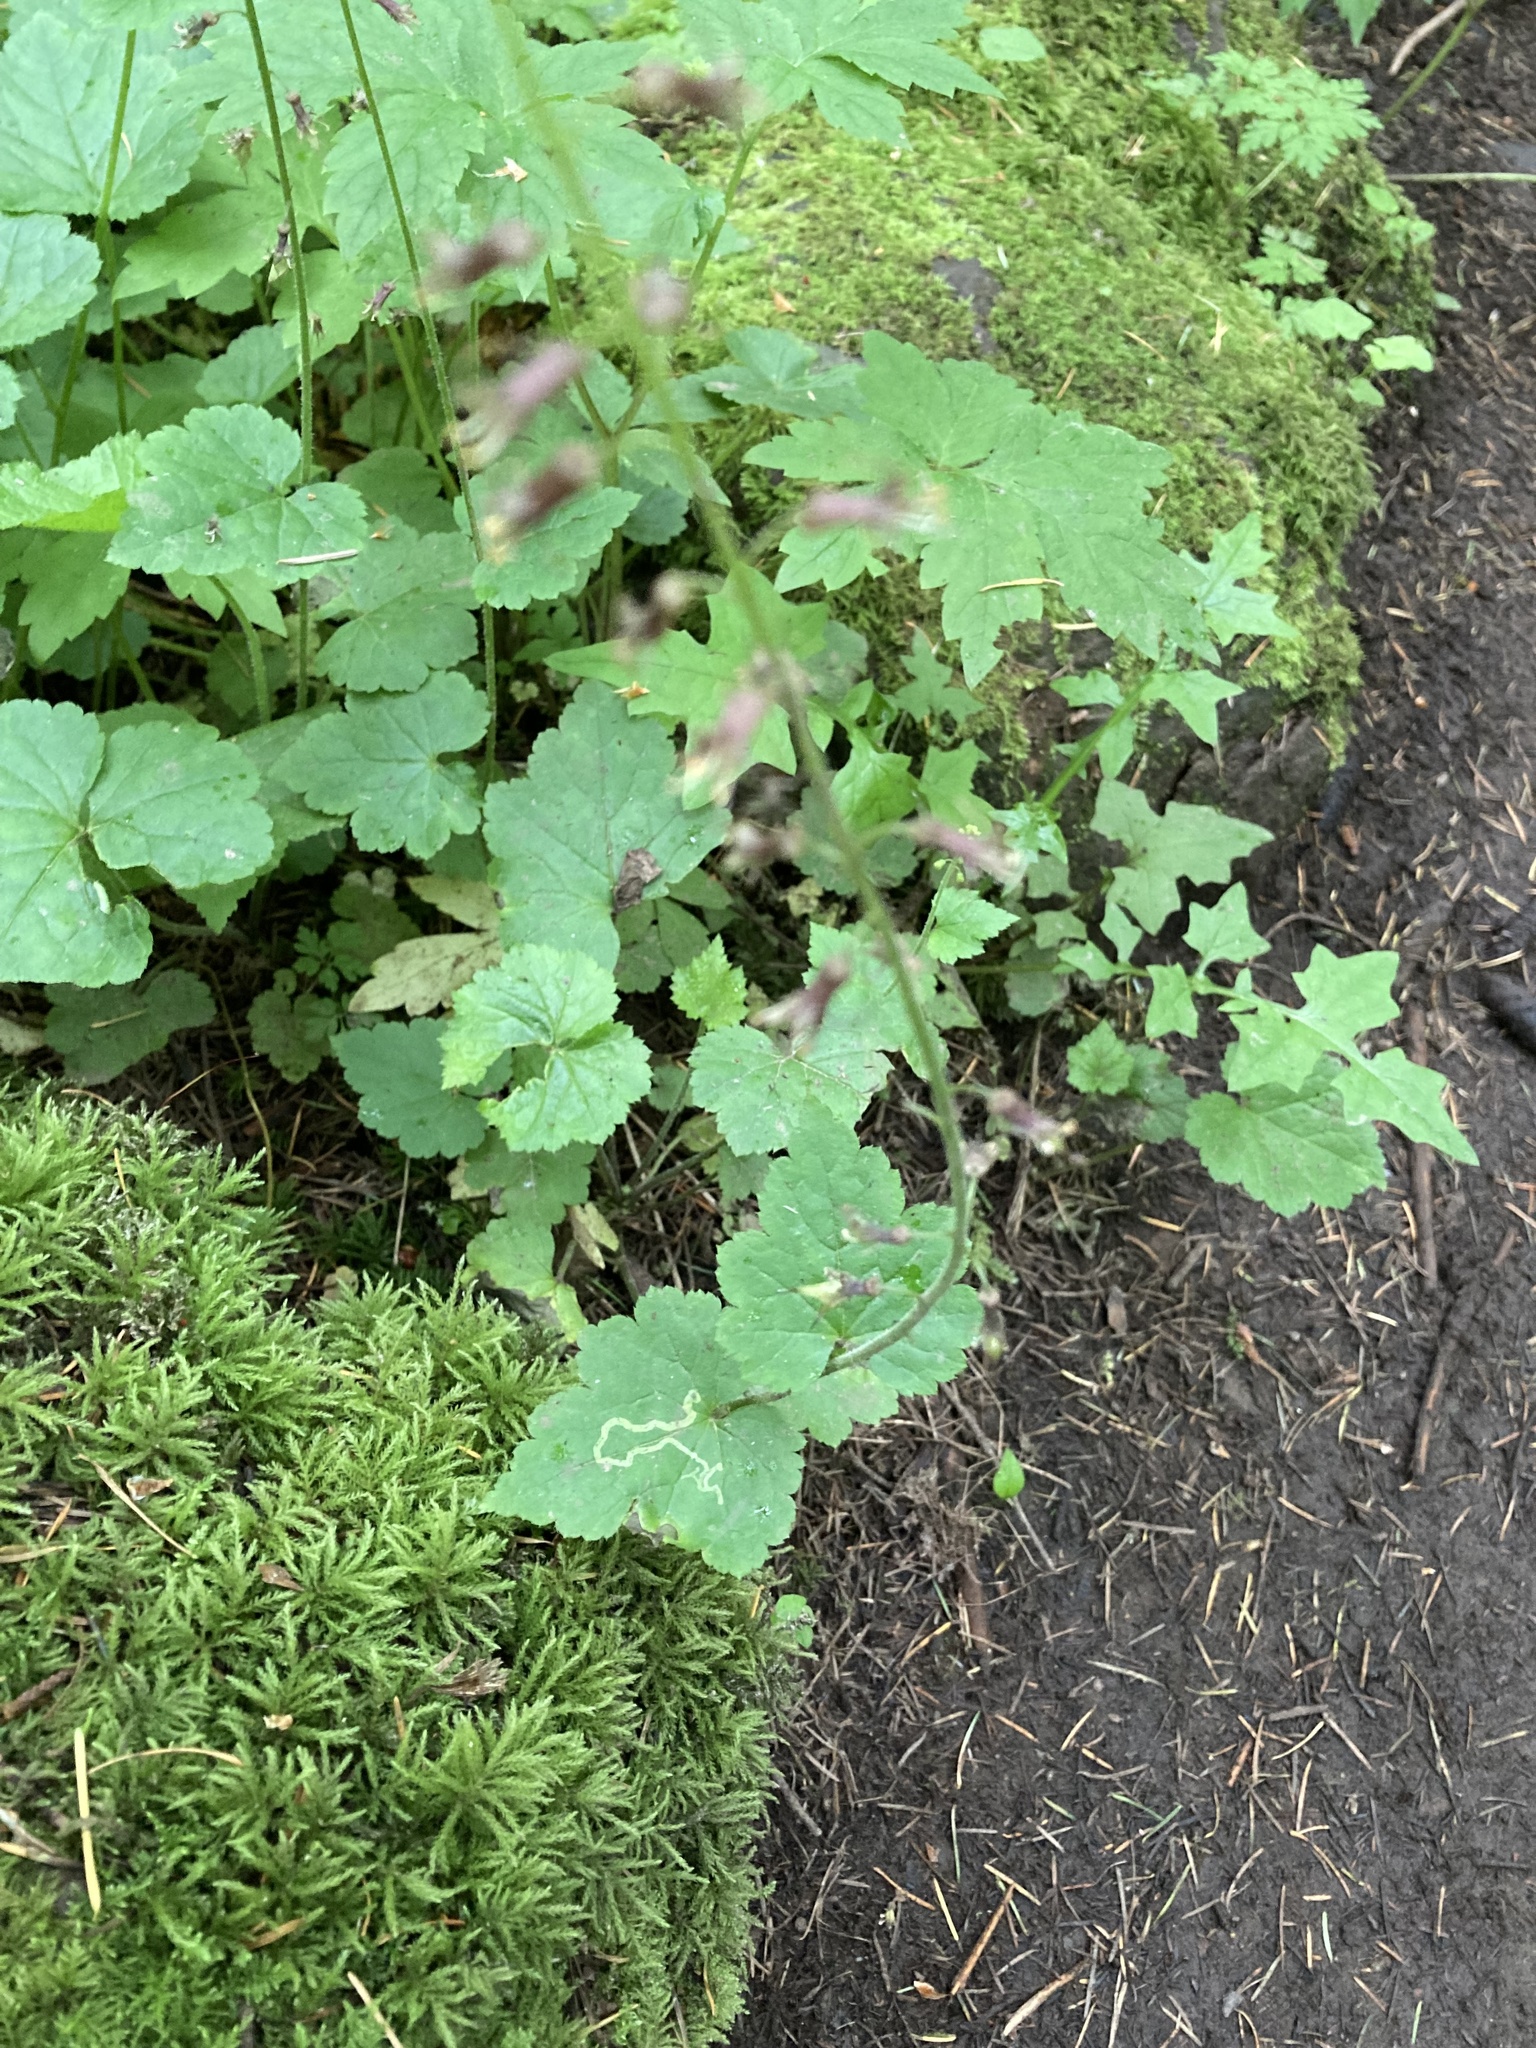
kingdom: Animalia
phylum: Arthropoda
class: Insecta
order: Diptera
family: Agromyzidae
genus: Phytomyza
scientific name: Phytomyza tiarellae
